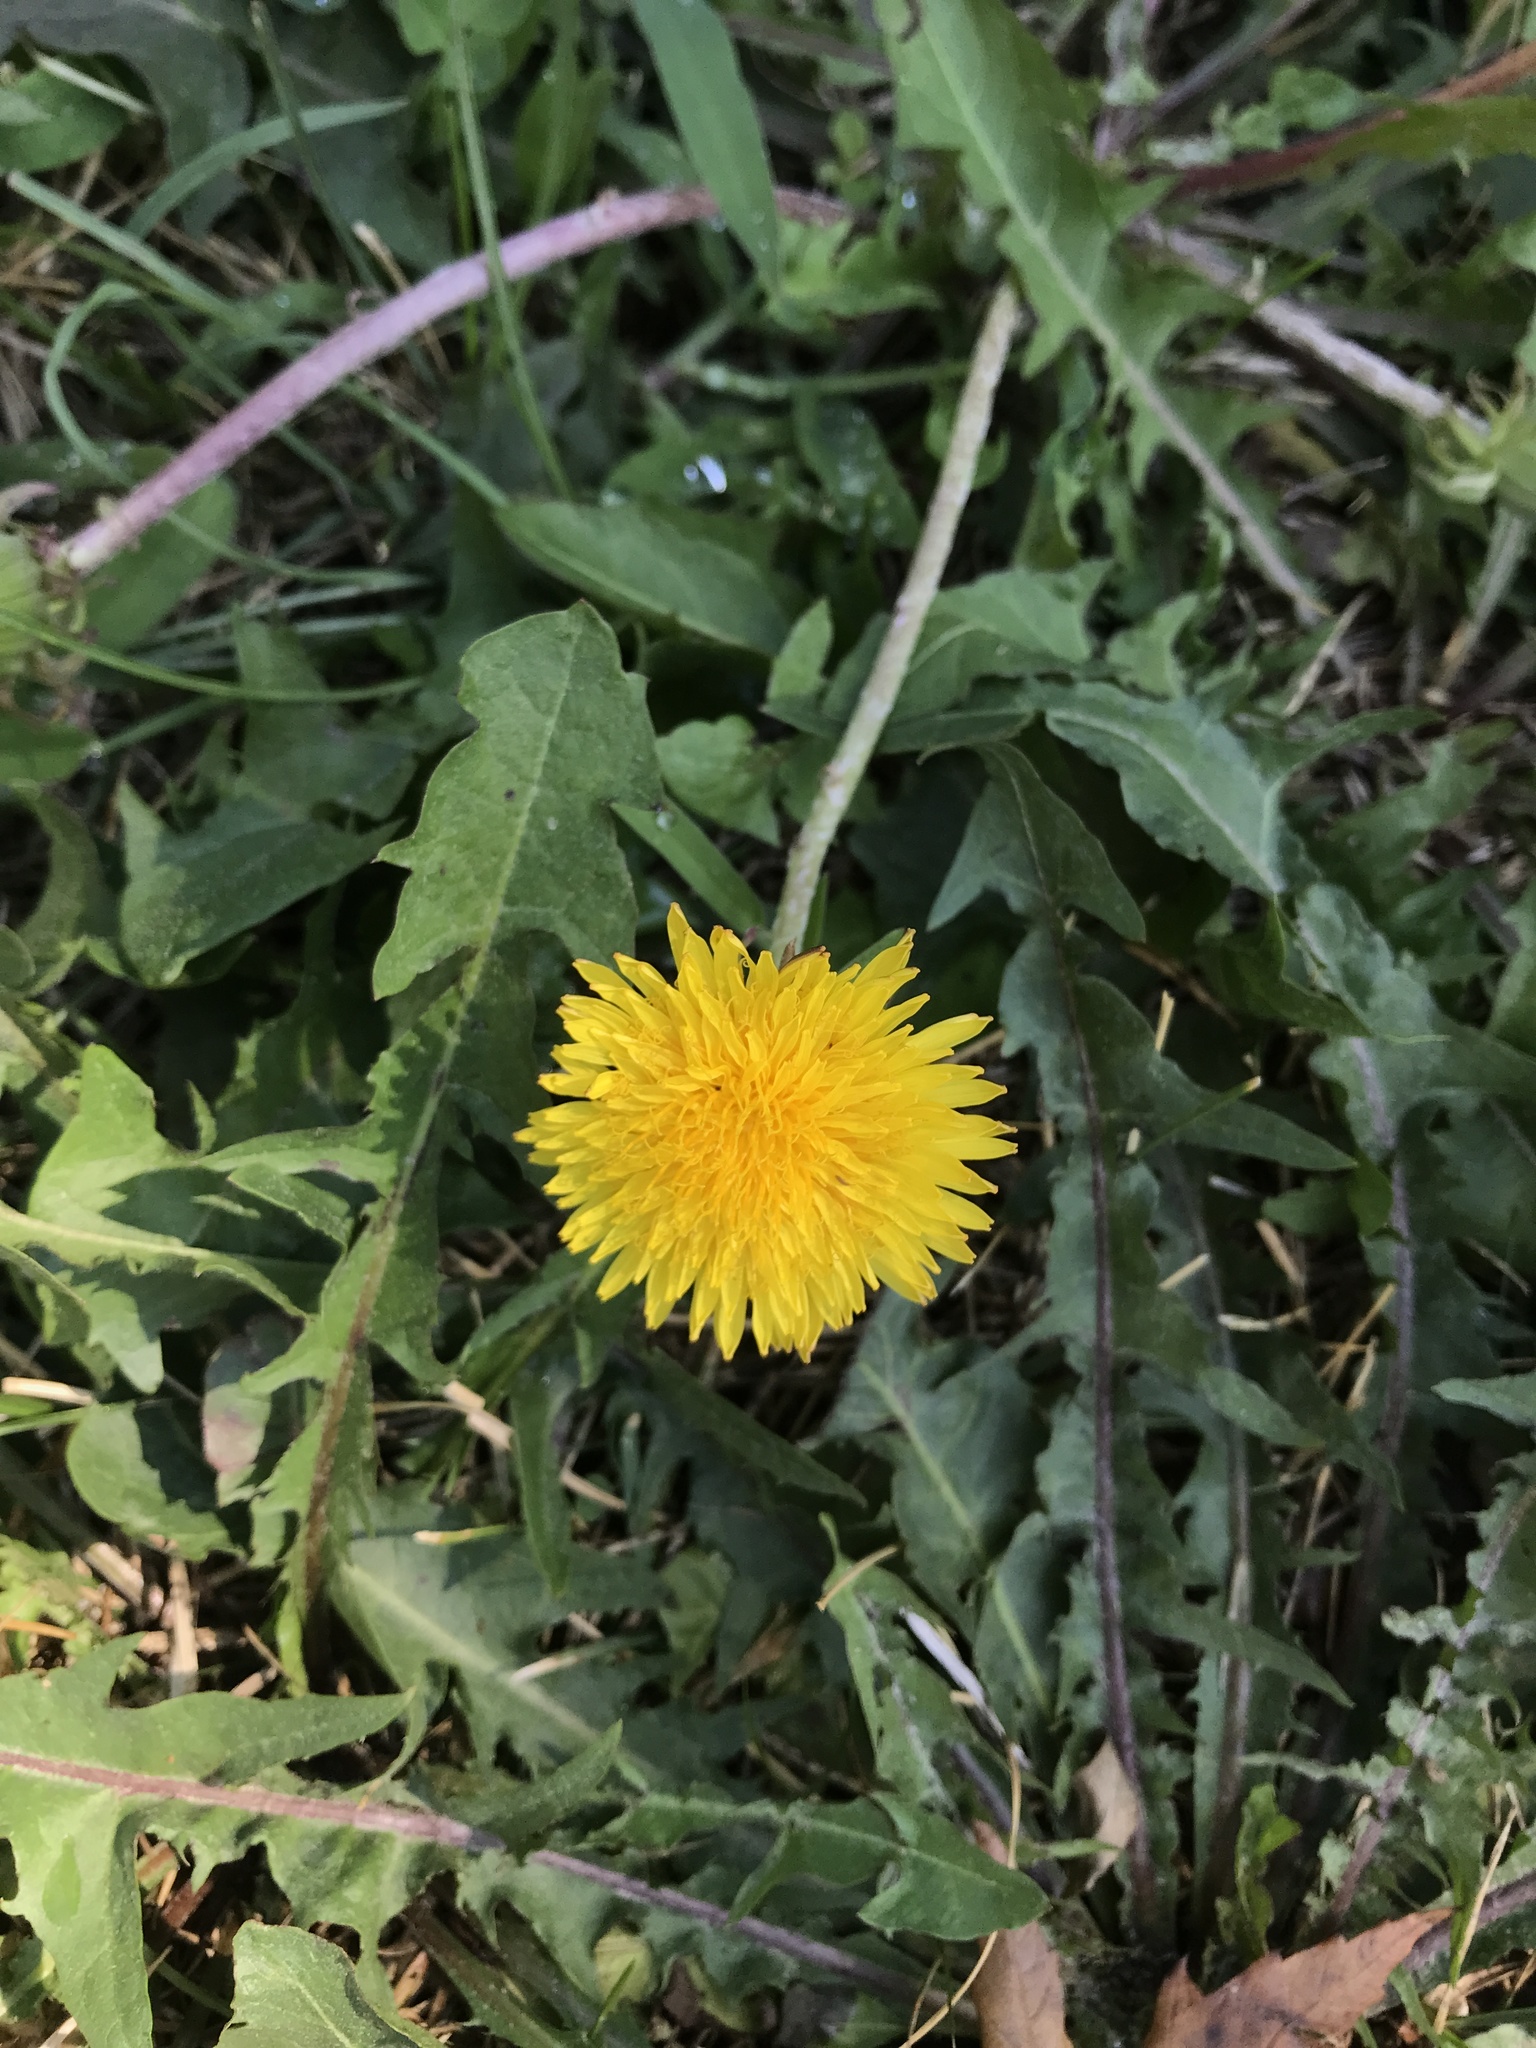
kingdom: Plantae
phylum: Tracheophyta
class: Magnoliopsida
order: Asterales
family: Asteraceae
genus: Taraxacum
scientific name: Taraxacum officinale
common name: Common dandelion
